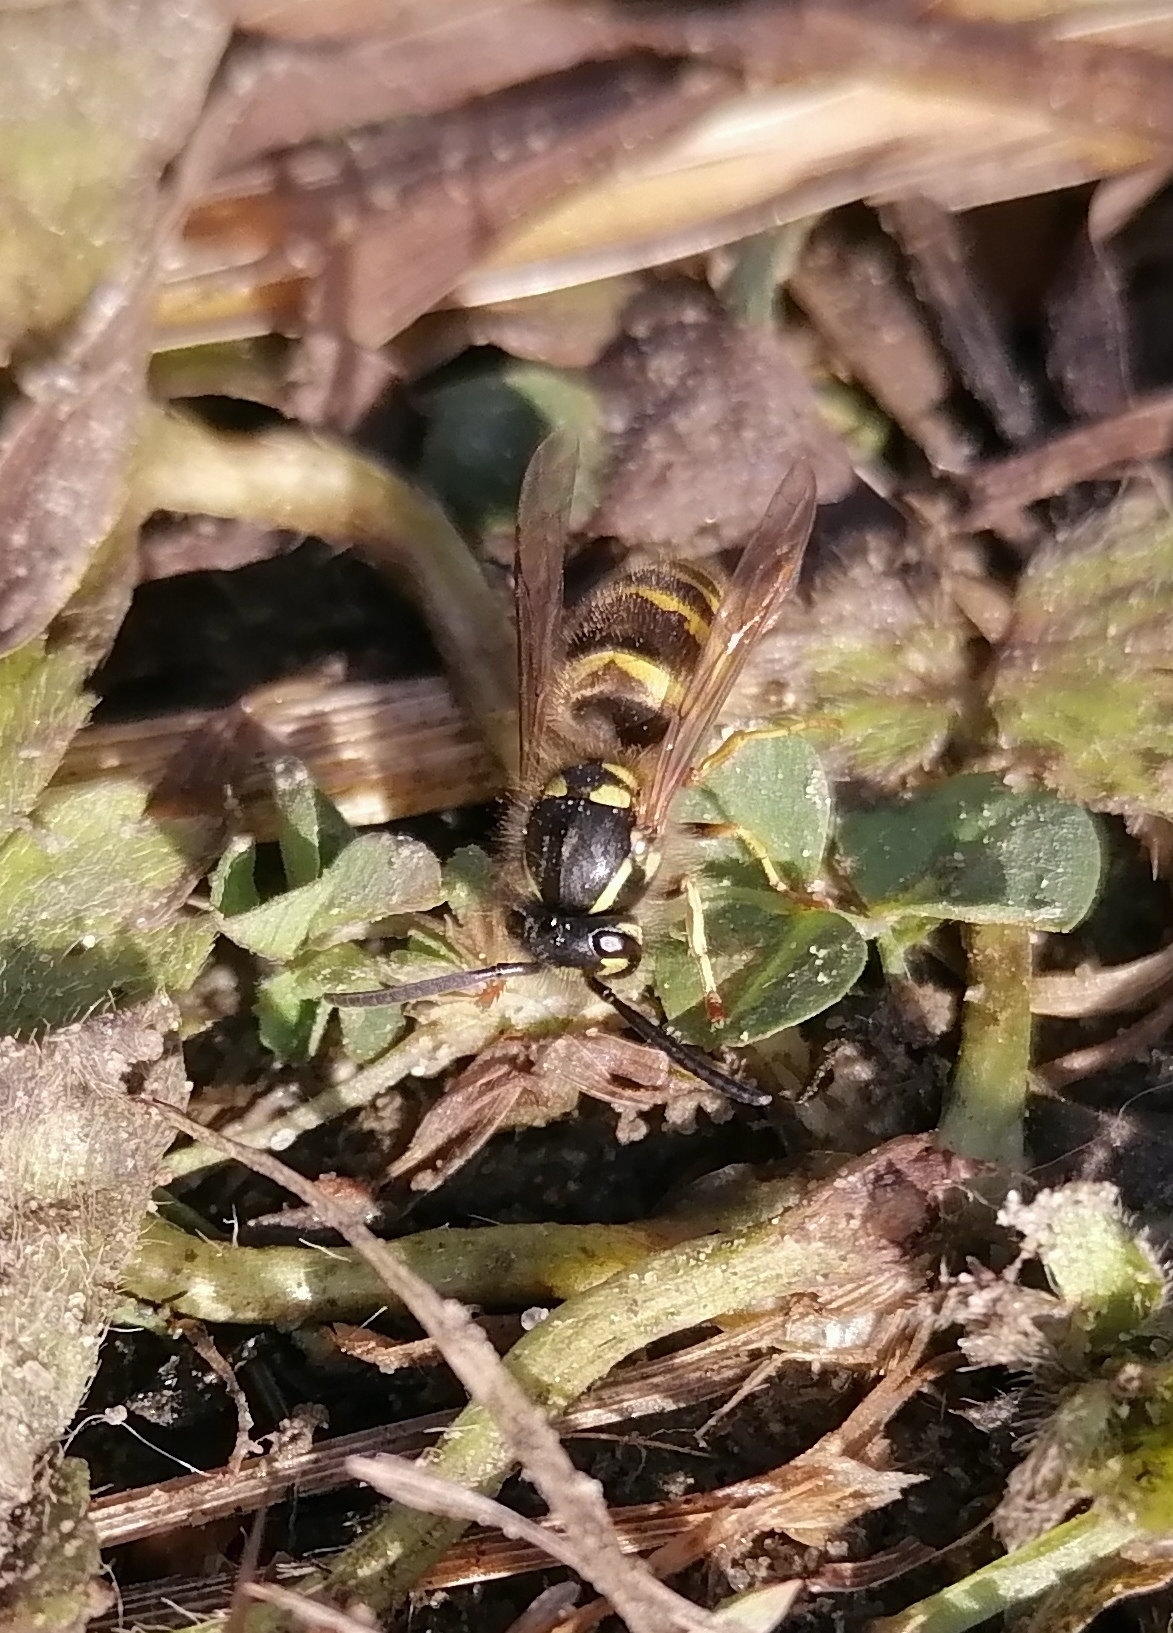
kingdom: Animalia
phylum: Arthropoda
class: Insecta
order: Hymenoptera
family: Vespidae
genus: Vespula
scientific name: Vespula vulgaris
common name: Common wasp
